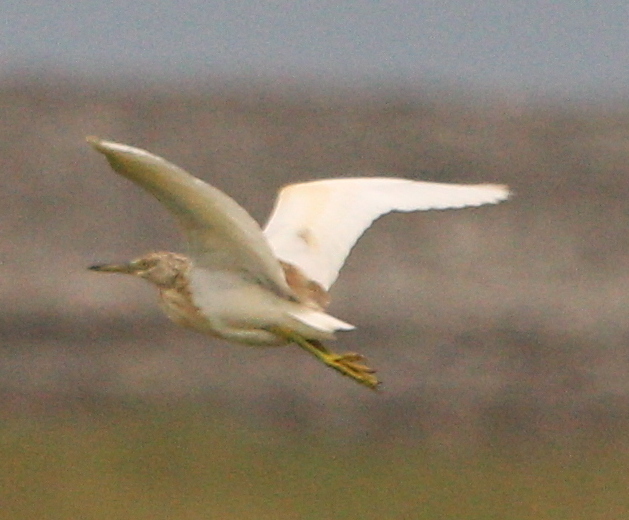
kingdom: Animalia
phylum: Chordata
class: Aves
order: Pelecaniformes
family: Ardeidae
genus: Ardeola
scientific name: Ardeola ralloides
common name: Squacco heron
